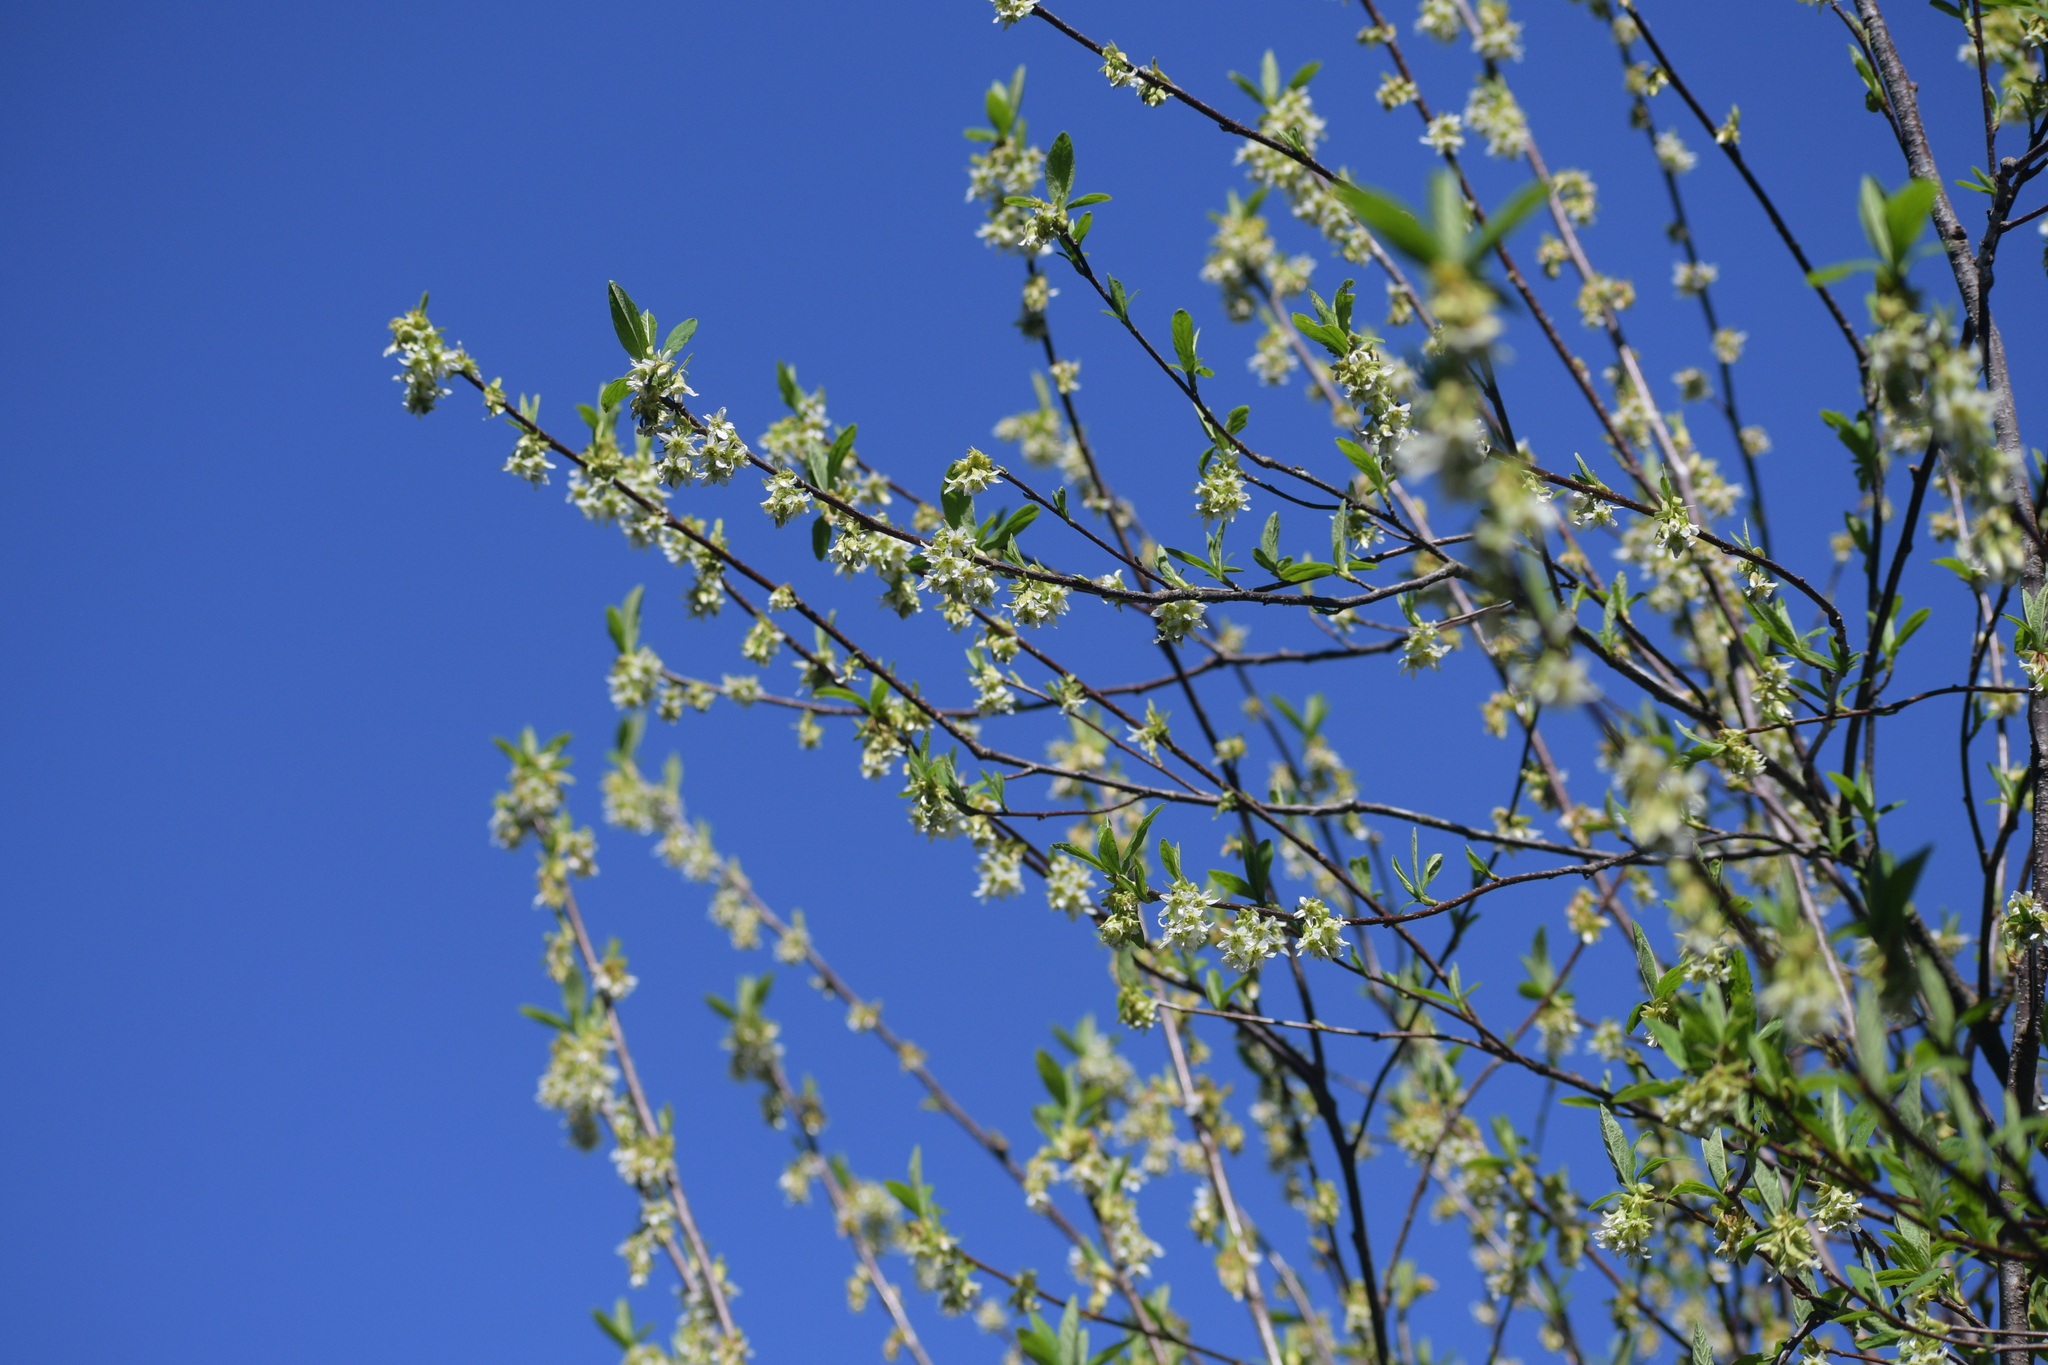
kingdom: Plantae
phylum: Tracheophyta
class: Magnoliopsida
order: Rosales
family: Rosaceae
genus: Oemleria
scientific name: Oemleria cerasiformis
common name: Osoberry
